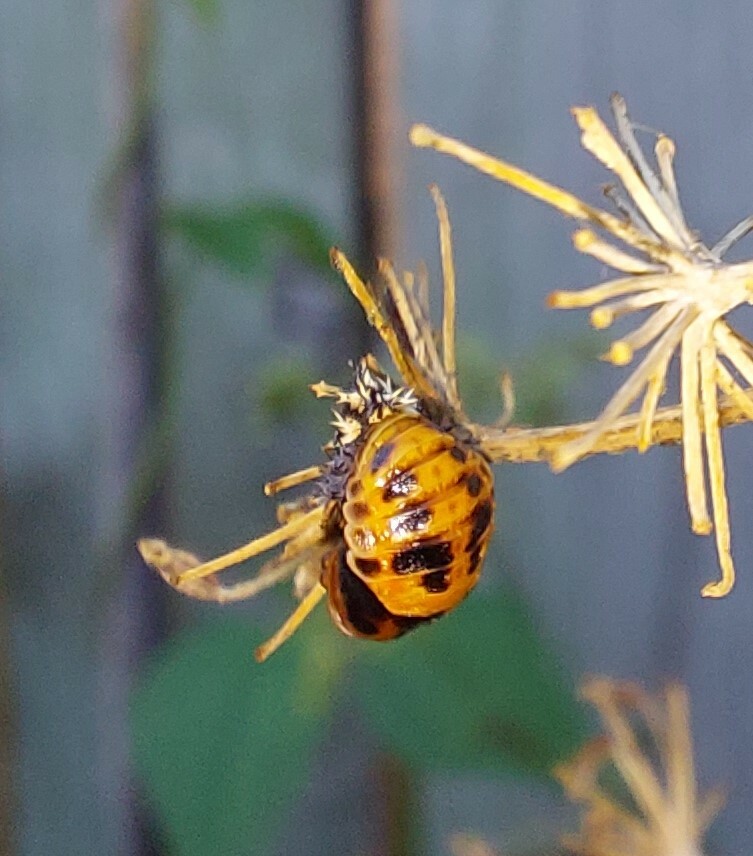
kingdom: Animalia
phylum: Arthropoda
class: Insecta
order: Coleoptera
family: Coccinellidae
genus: Harmonia
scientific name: Harmonia axyridis
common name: Harlequin ladybird
